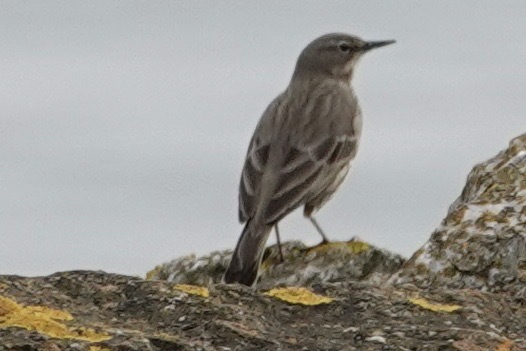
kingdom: Animalia
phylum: Chordata
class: Aves
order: Passeriformes
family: Motacillidae
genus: Anthus
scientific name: Anthus petrosus
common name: Eurasian rock pipit
